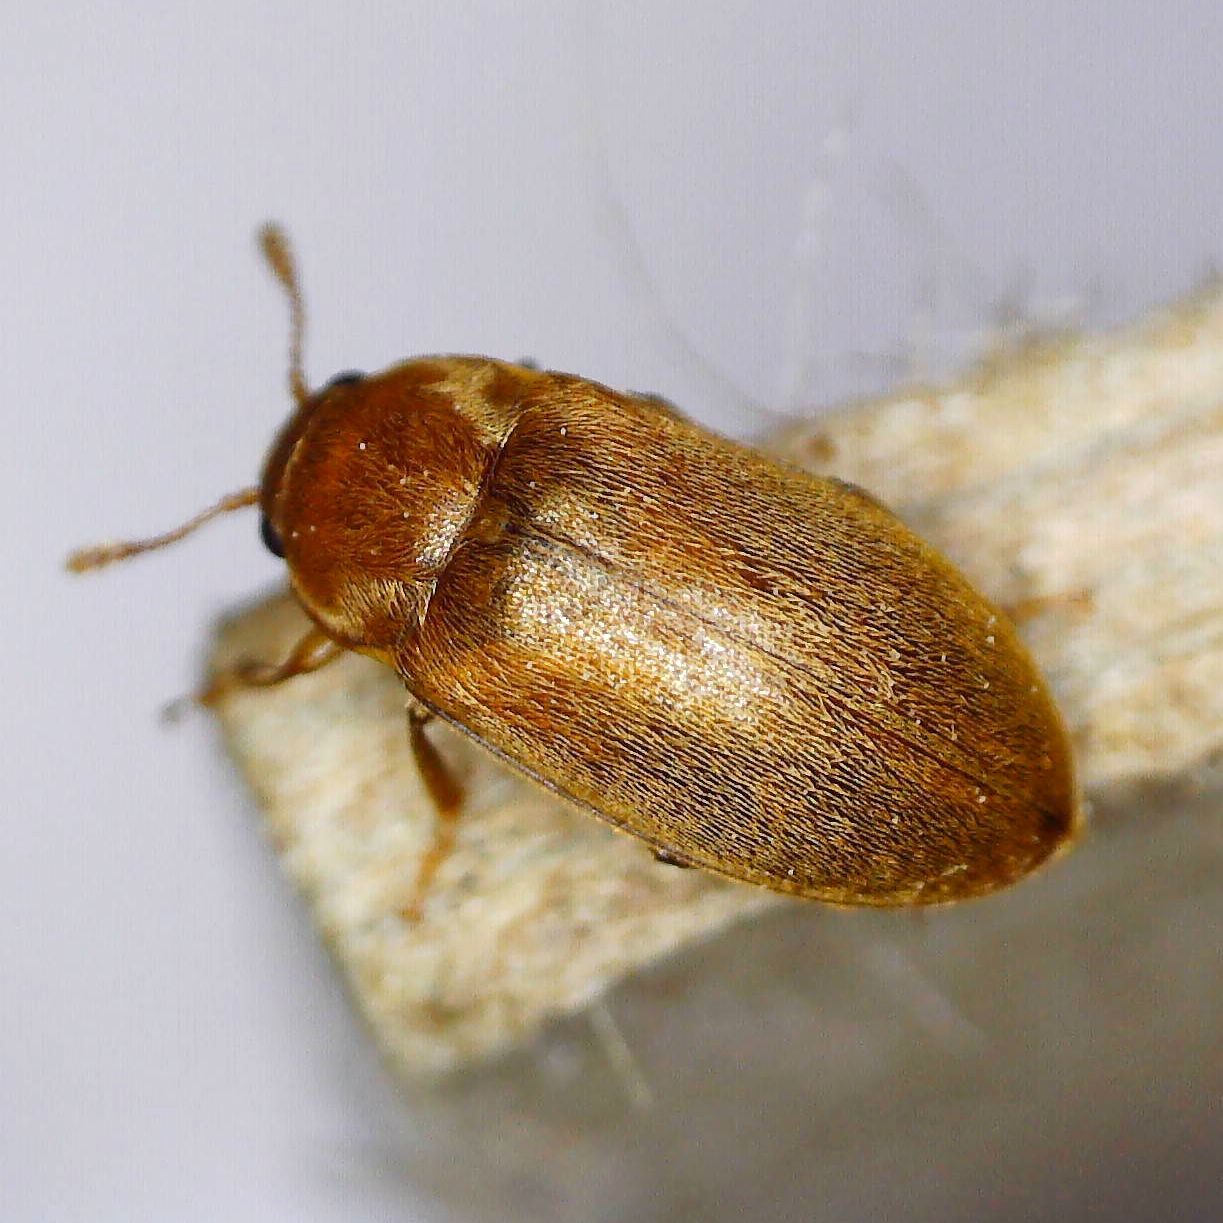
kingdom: Animalia
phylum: Arthropoda
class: Insecta
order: Coleoptera
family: Byturidae
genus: Byturus
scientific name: Byturus tomentosus
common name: Beetle
